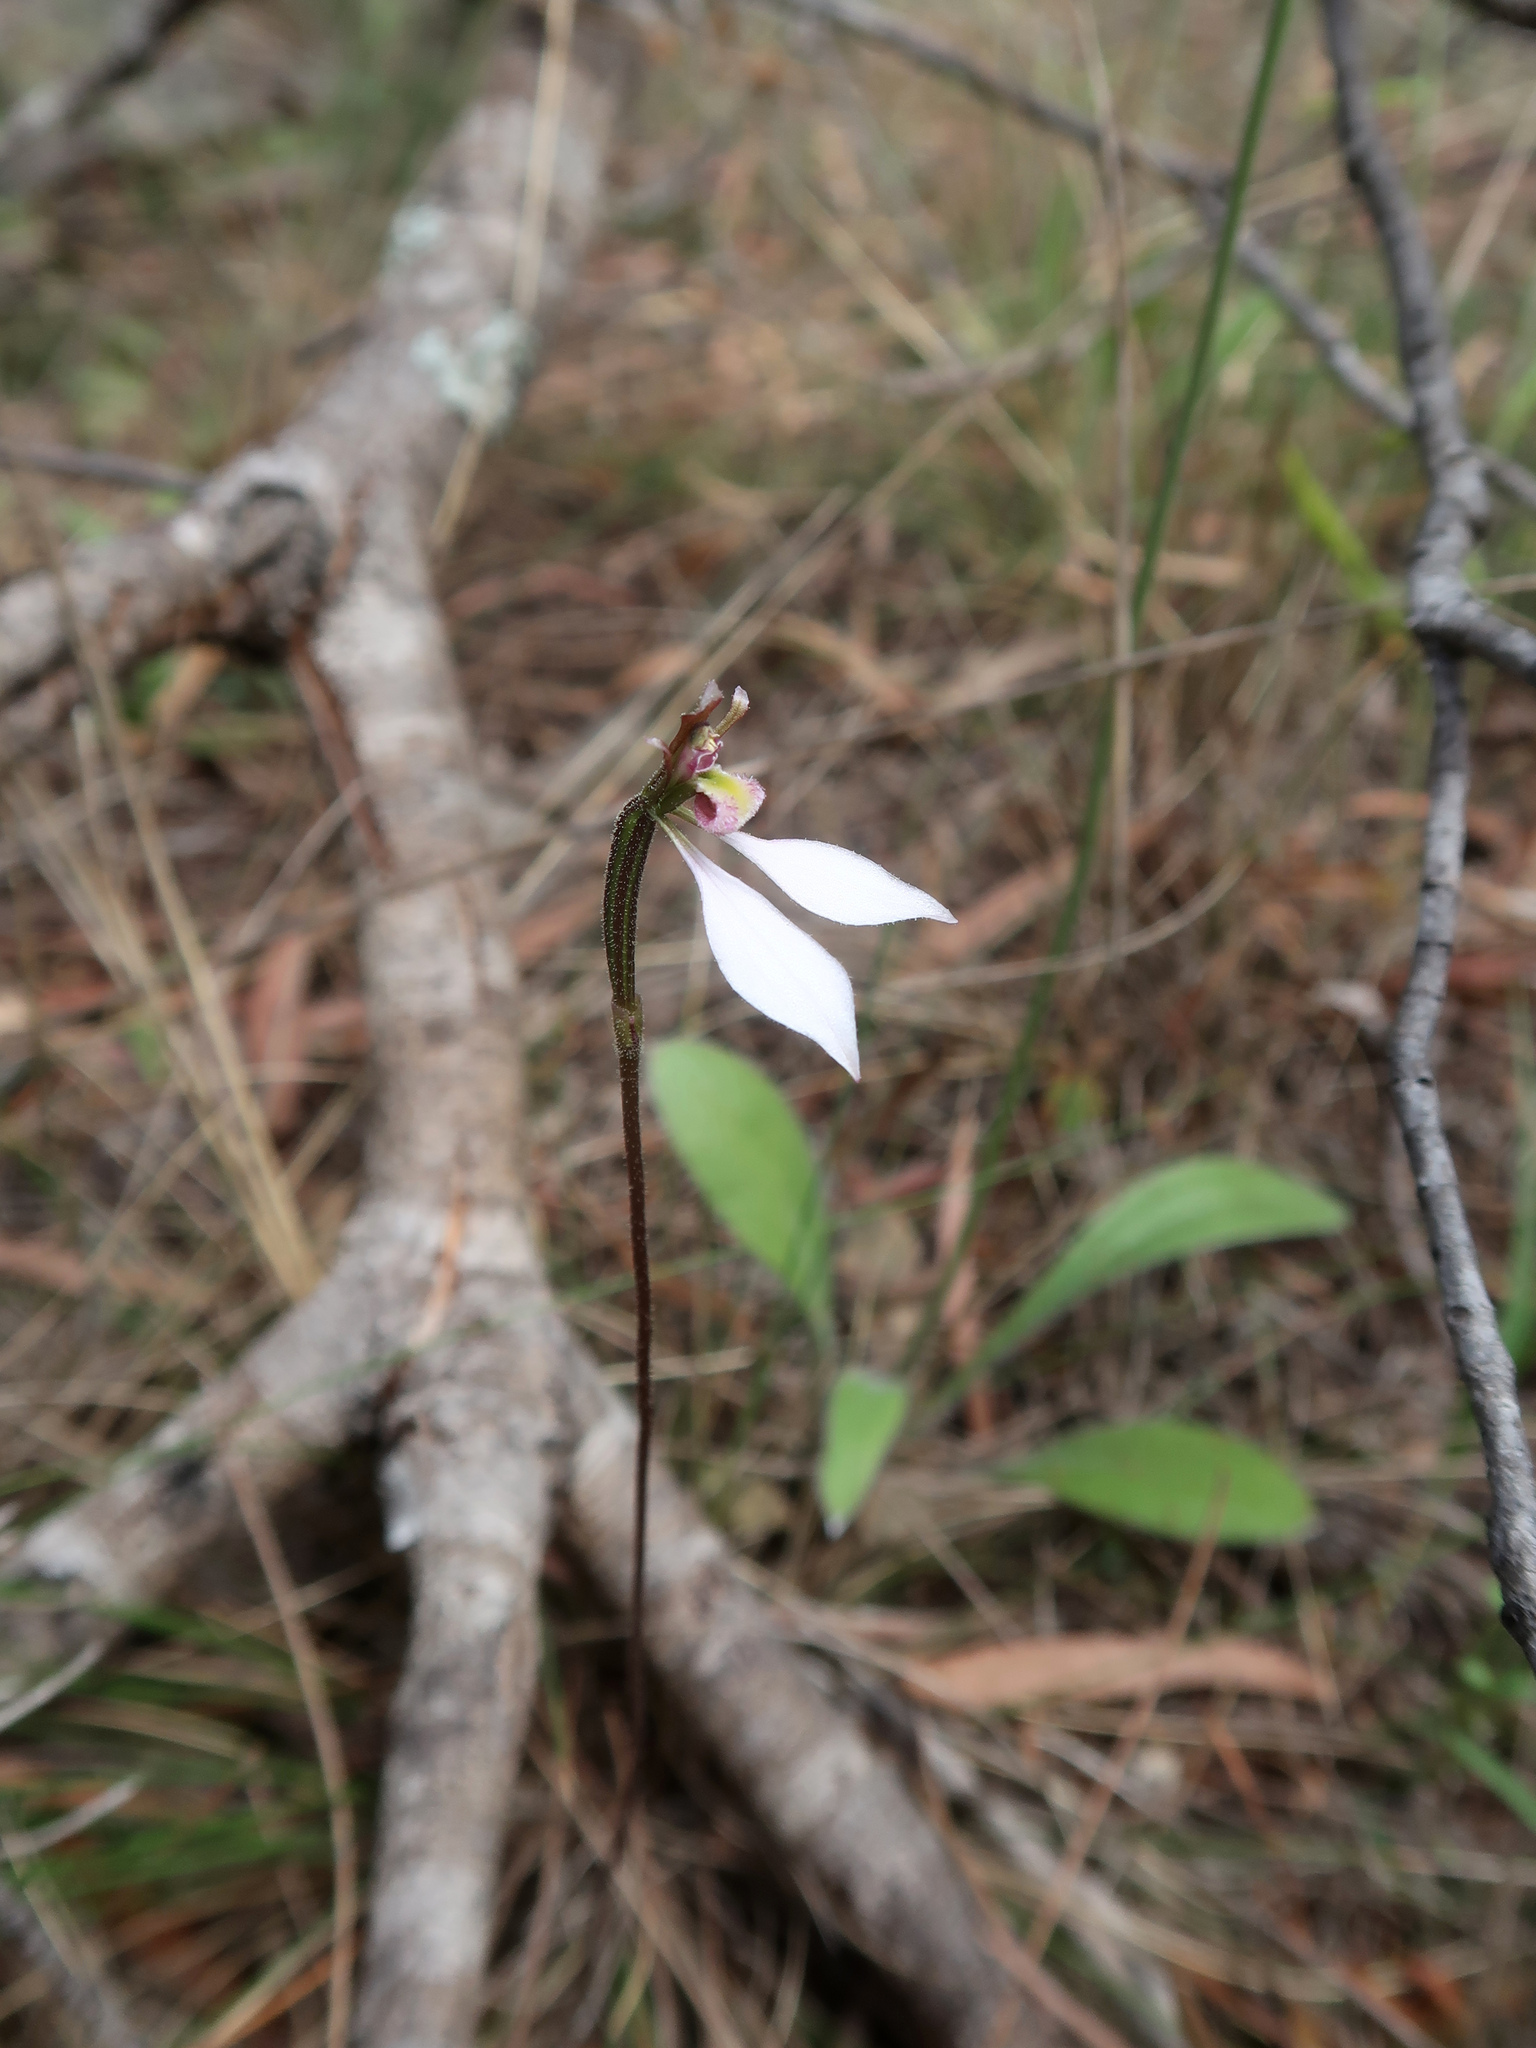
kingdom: Plantae
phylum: Tracheophyta
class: Liliopsida
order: Asparagales
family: Orchidaceae
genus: Eriochilus
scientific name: Eriochilus cucullatus
